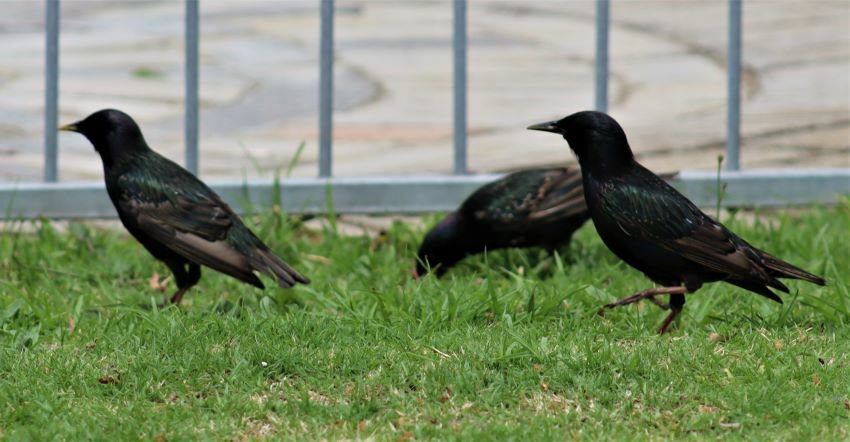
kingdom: Animalia
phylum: Chordata
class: Aves
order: Passeriformes
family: Sturnidae
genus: Sturnus
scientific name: Sturnus vulgaris
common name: Common starling
